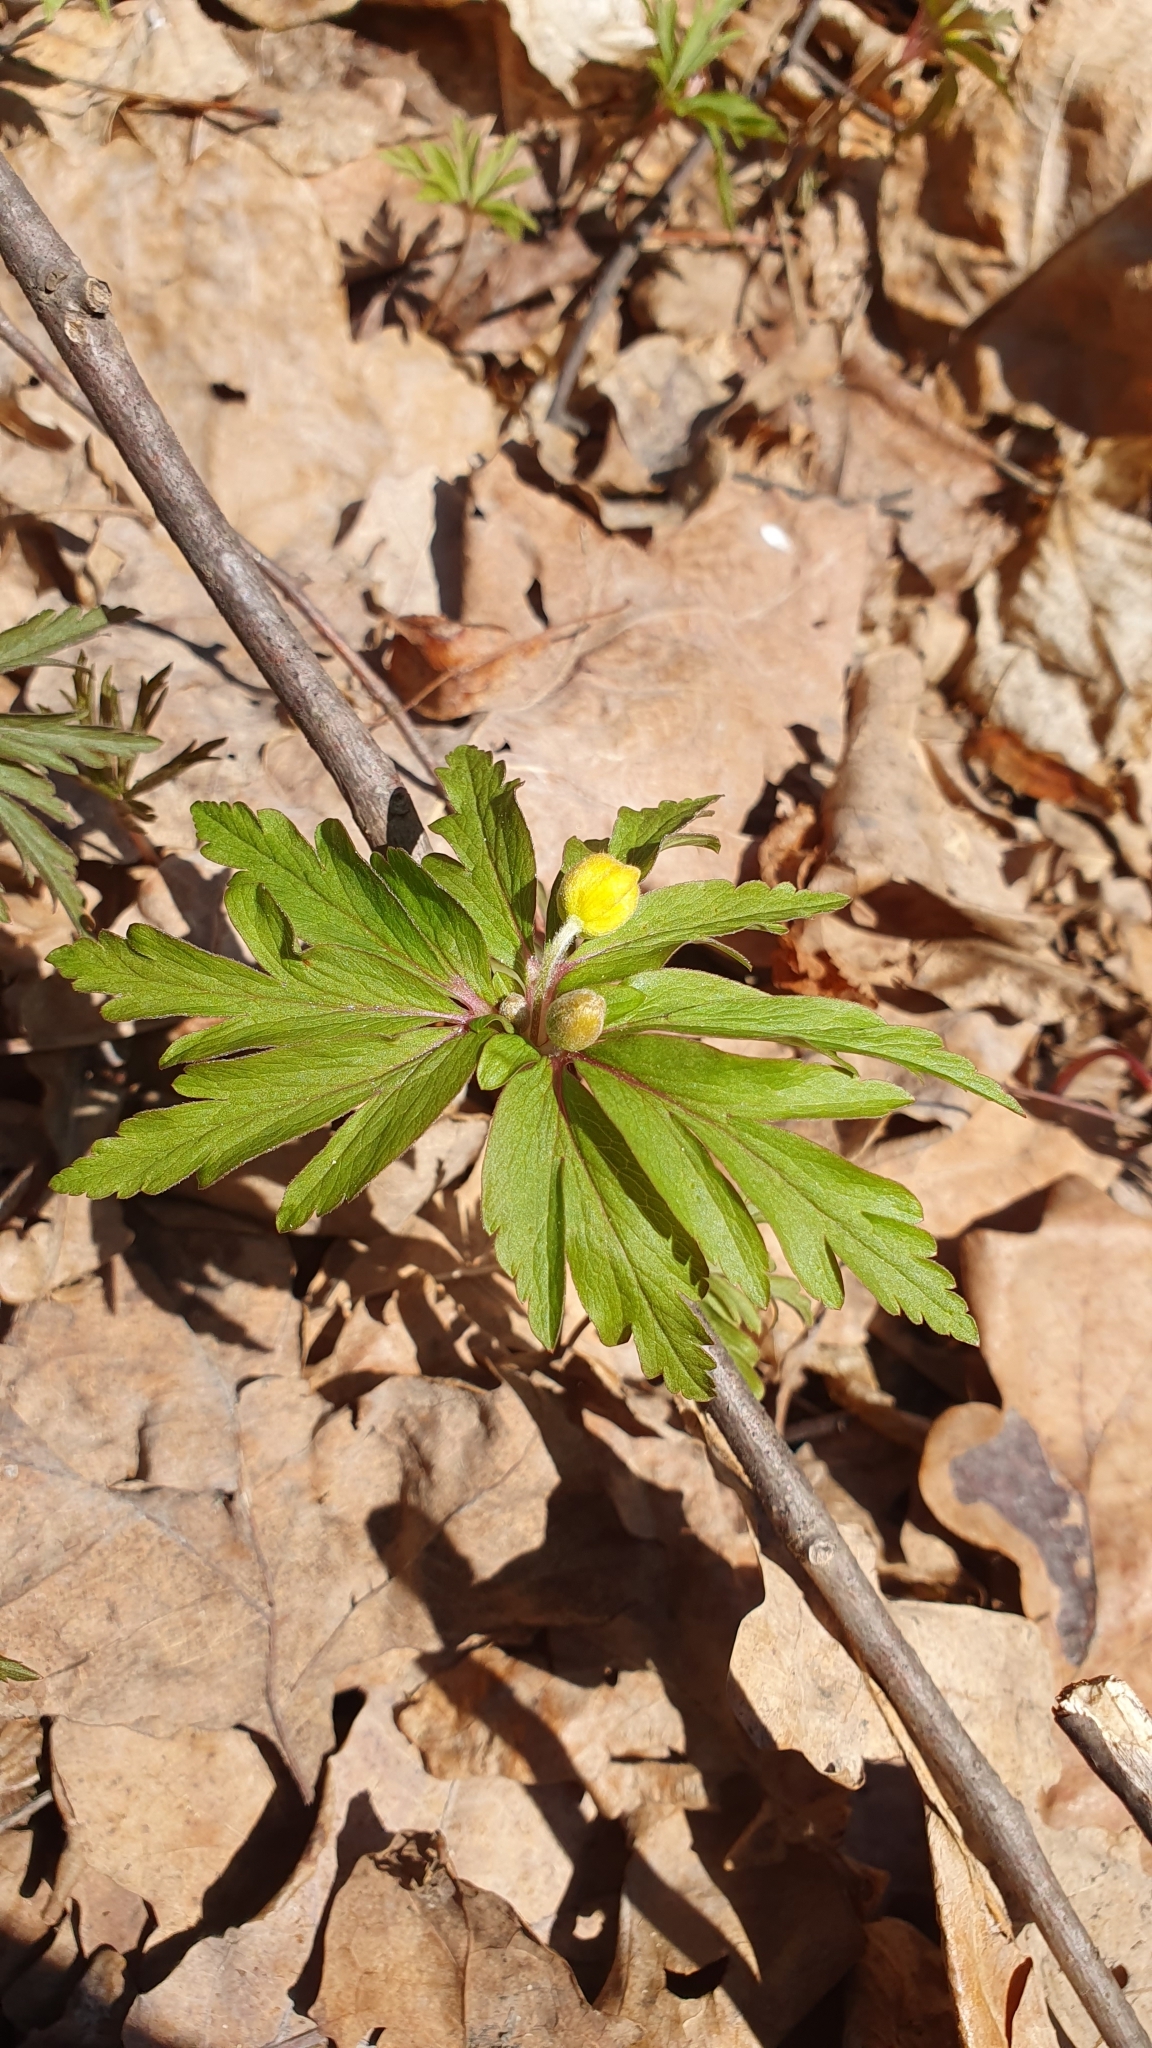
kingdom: Plantae
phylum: Tracheophyta
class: Magnoliopsida
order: Ranunculales
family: Ranunculaceae
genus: Anemone
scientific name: Anemone ranunculoides
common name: Yellow anemone
